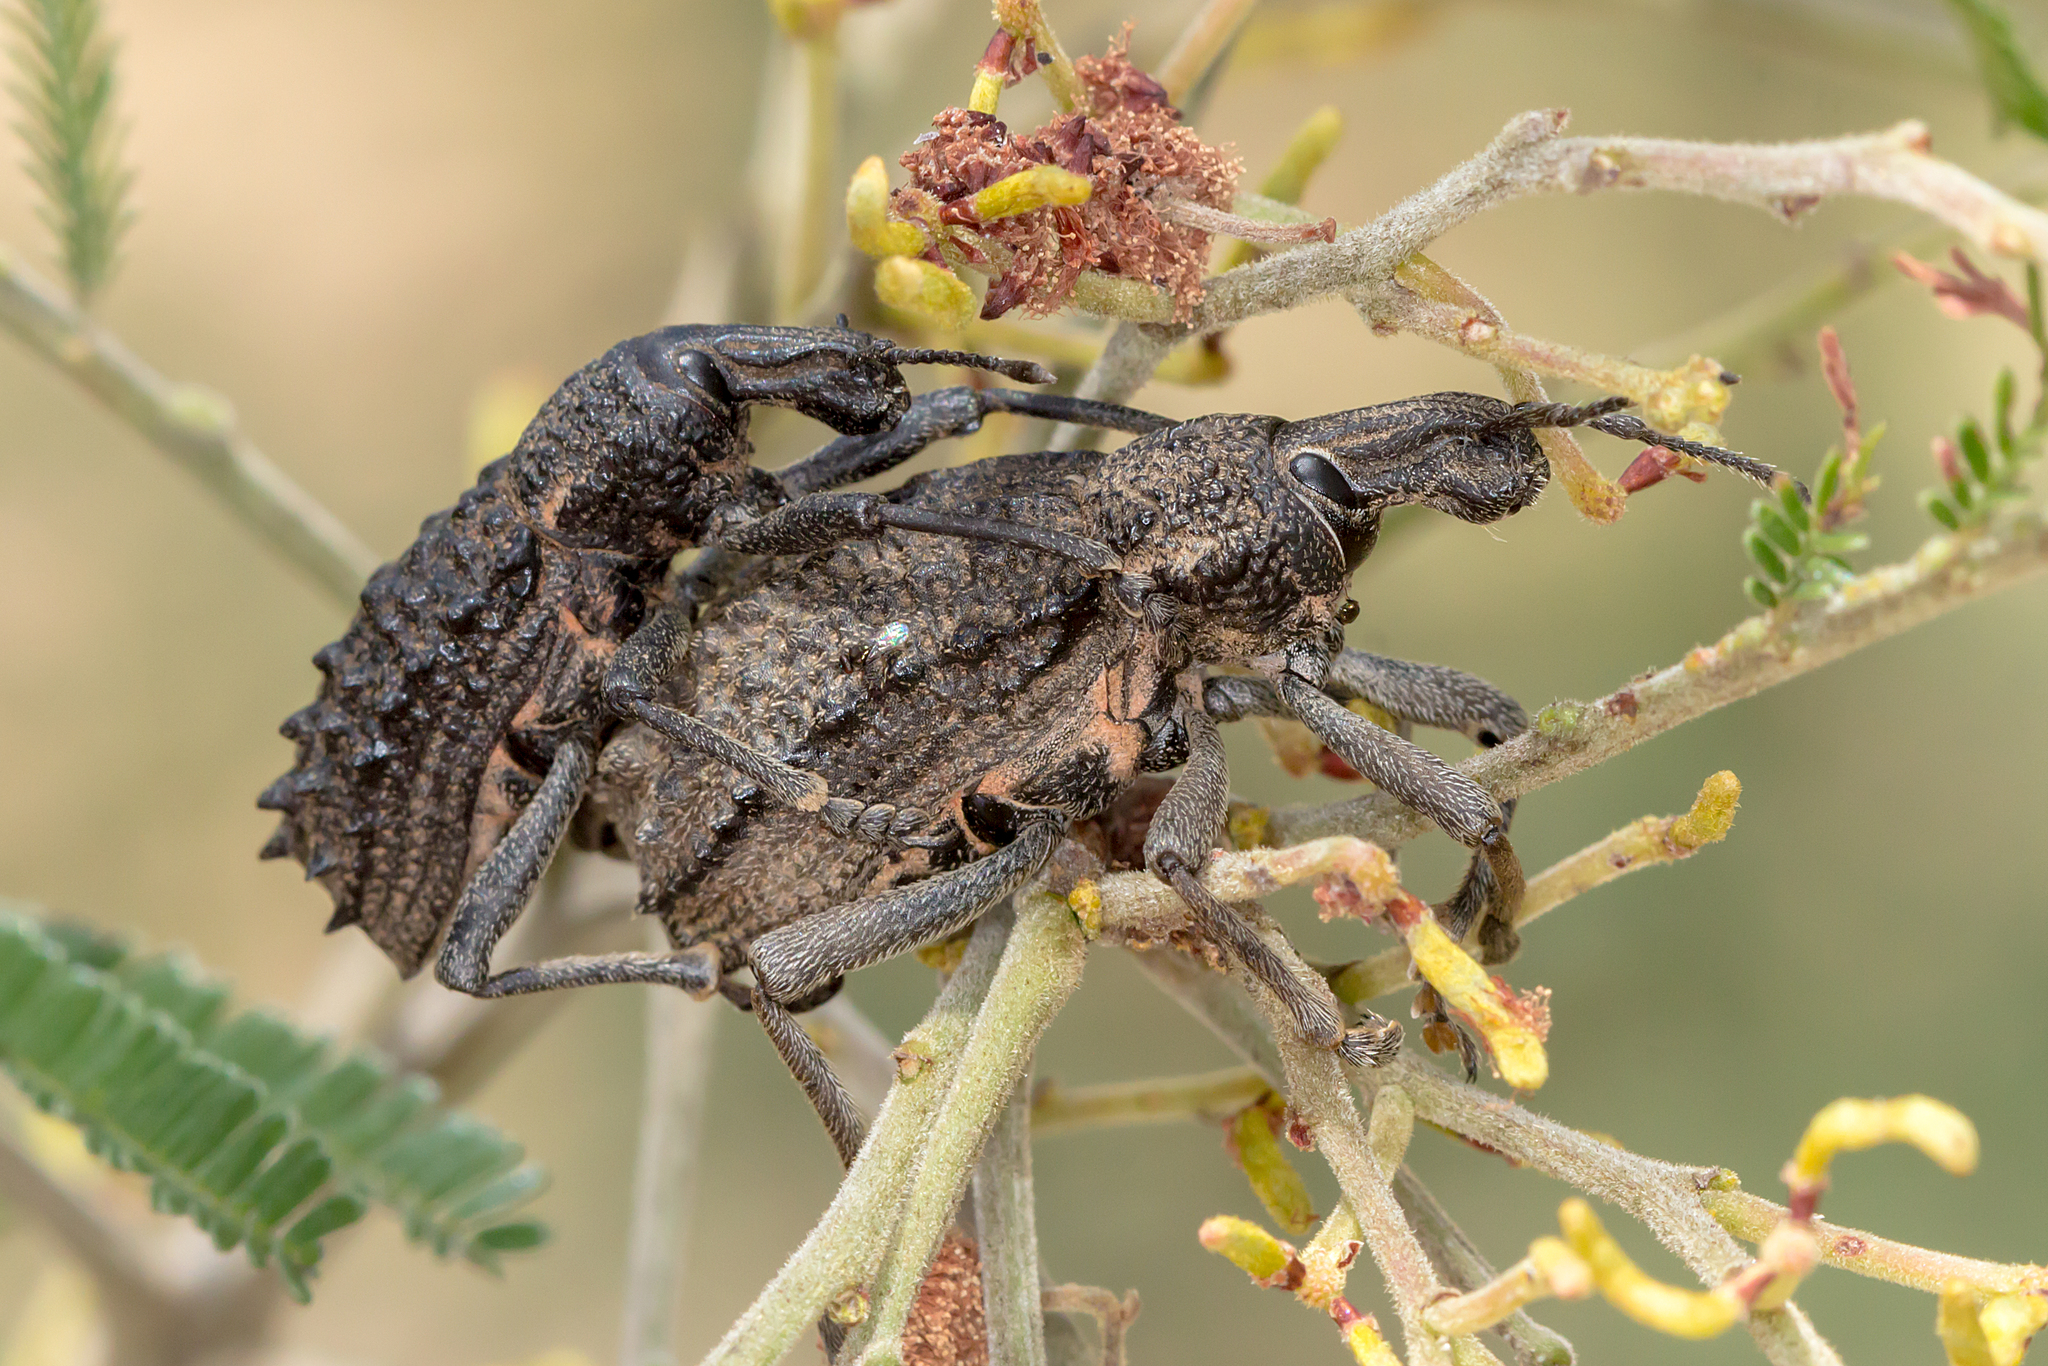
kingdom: Animalia
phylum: Arthropoda
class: Insecta
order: Coleoptera
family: Curculionidae
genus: Leptopius
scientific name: Leptopius duponti
